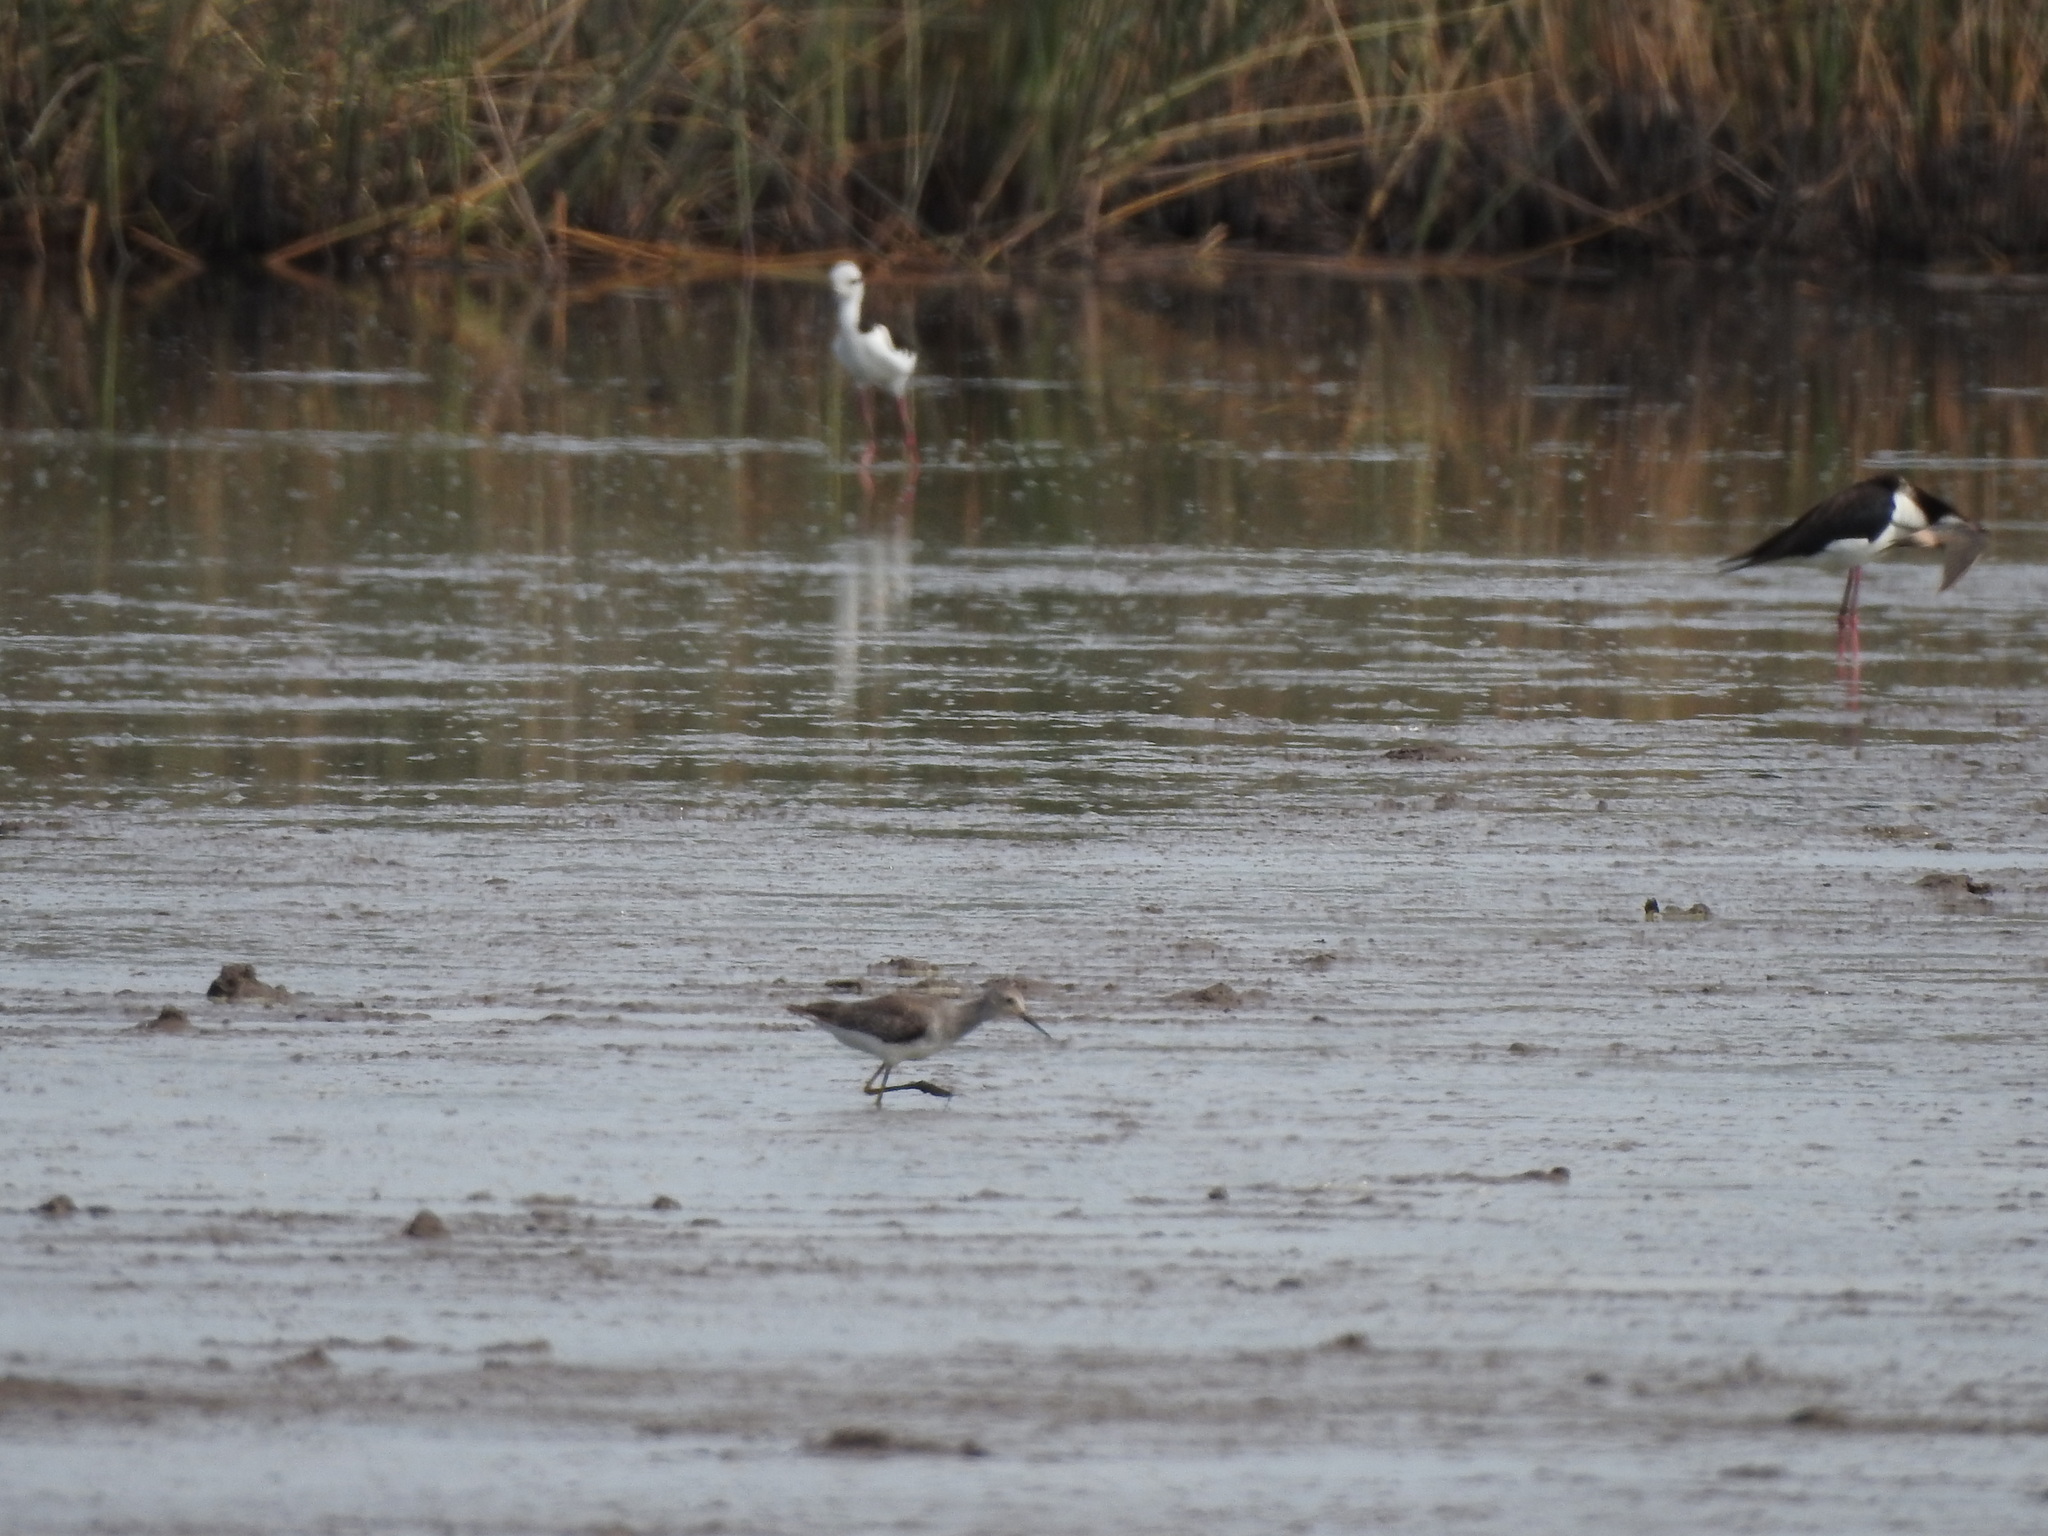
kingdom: Animalia
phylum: Chordata
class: Aves
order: Charadriiformes
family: Scolopacidae
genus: Tringa
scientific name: Tringa flavipes
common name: Lesser yellowlegs
